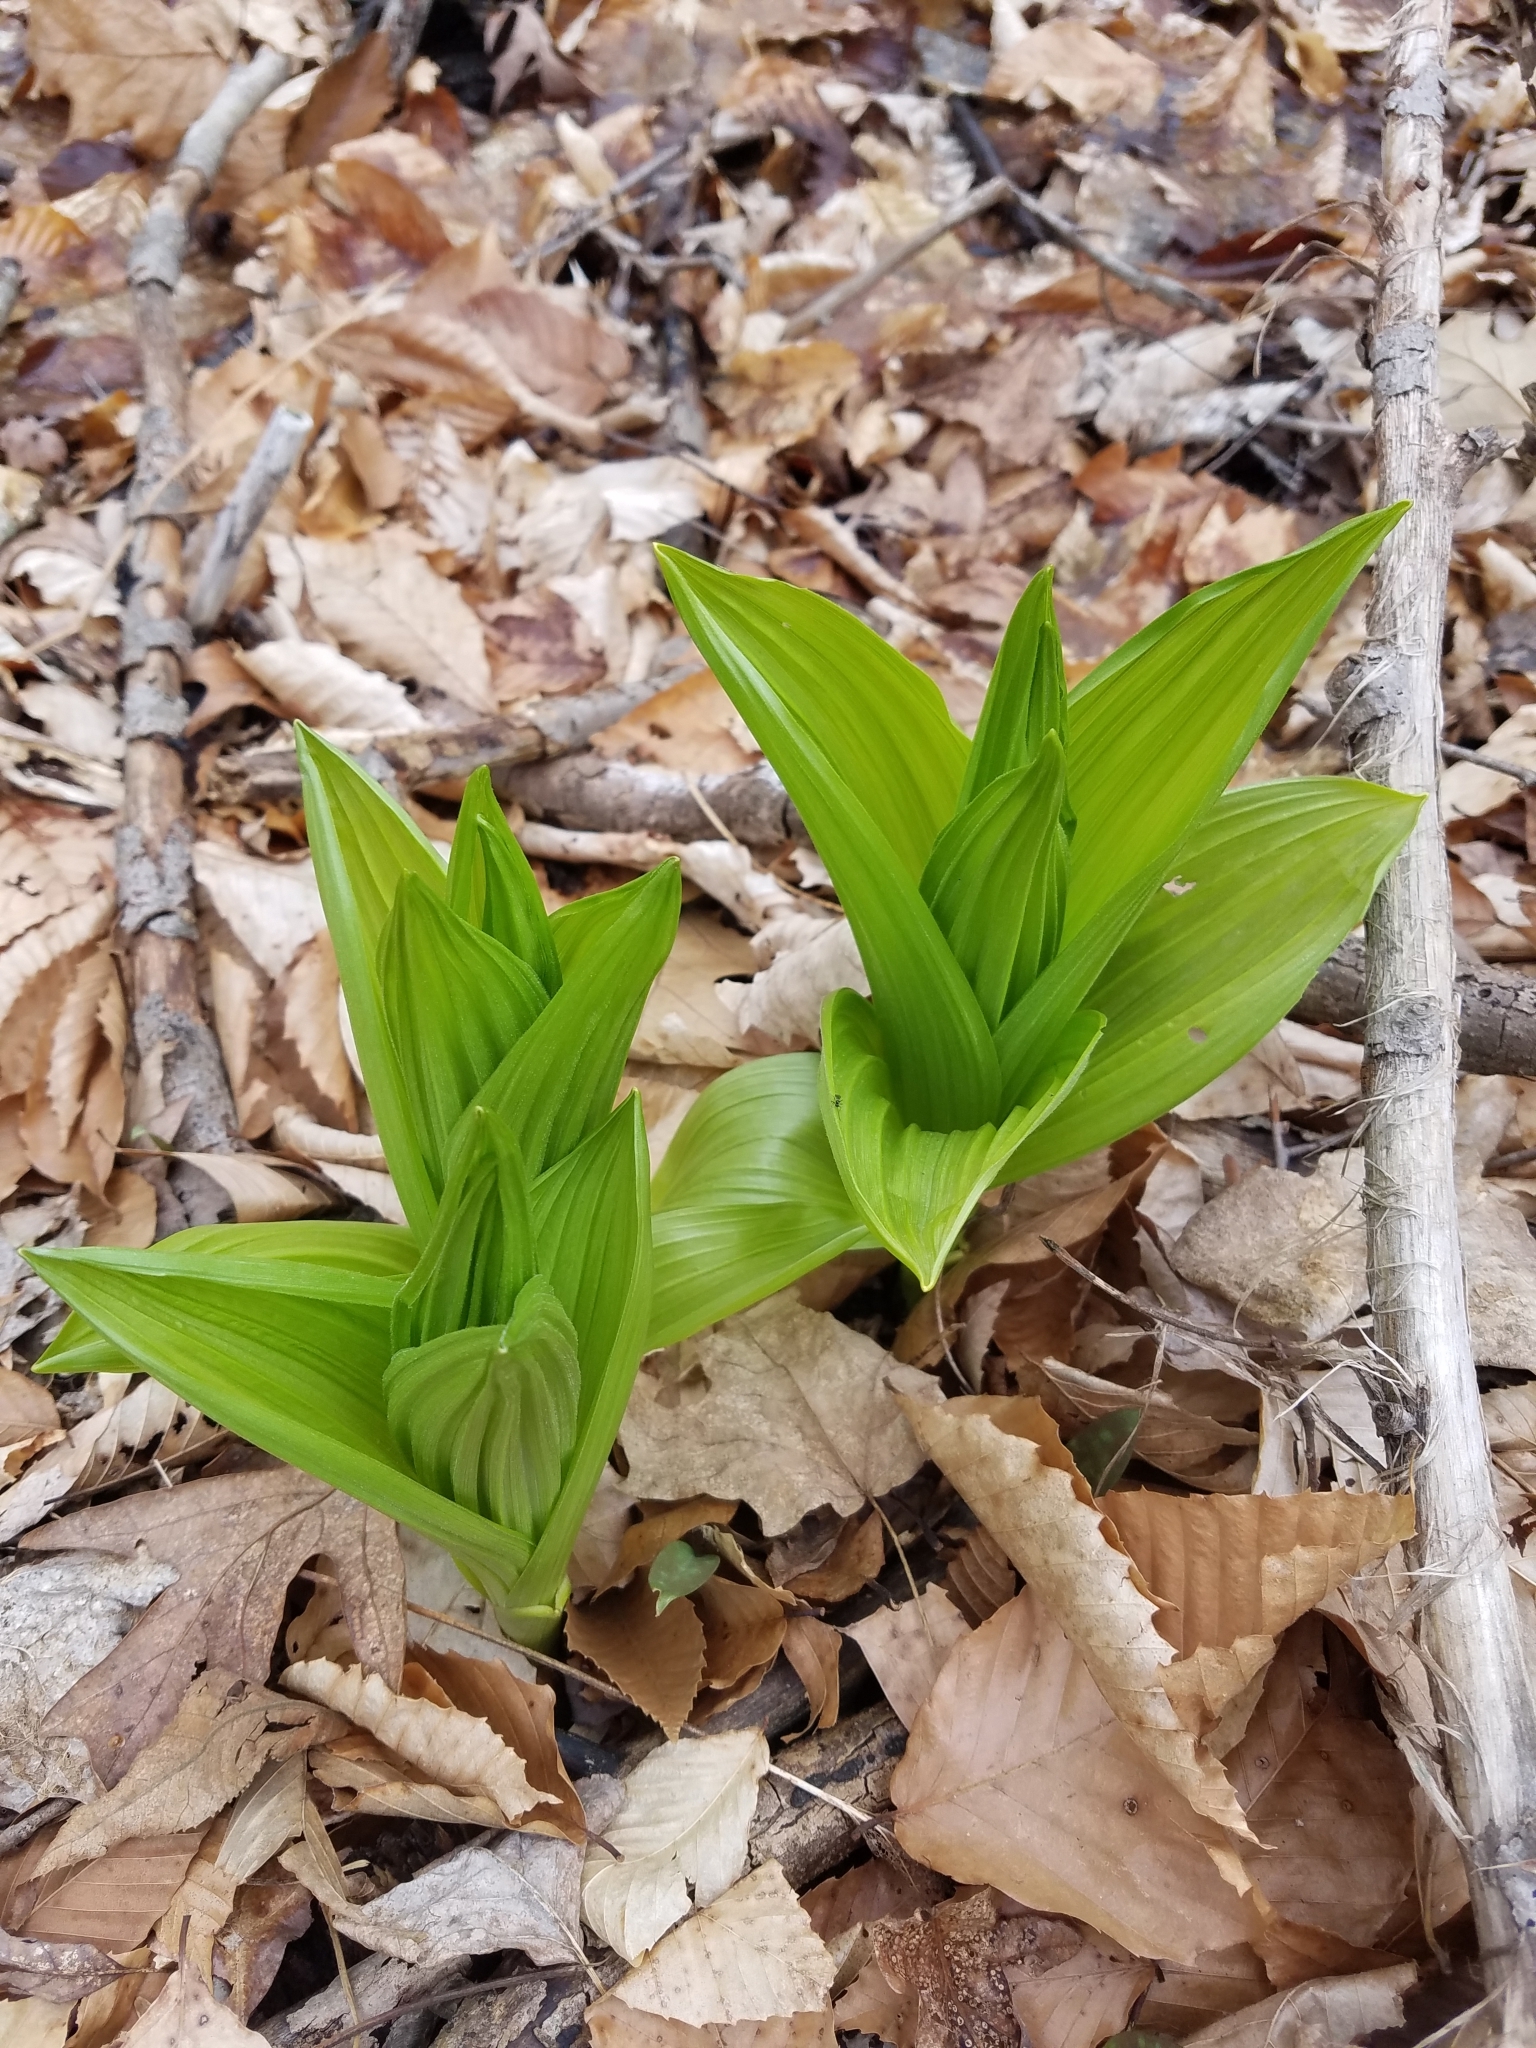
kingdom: Plantae
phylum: Tracheophyta
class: Liliopsida
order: Liliales
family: Melanthiaceae
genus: Veratrum
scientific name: Veratrum viride
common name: American false hellebore
